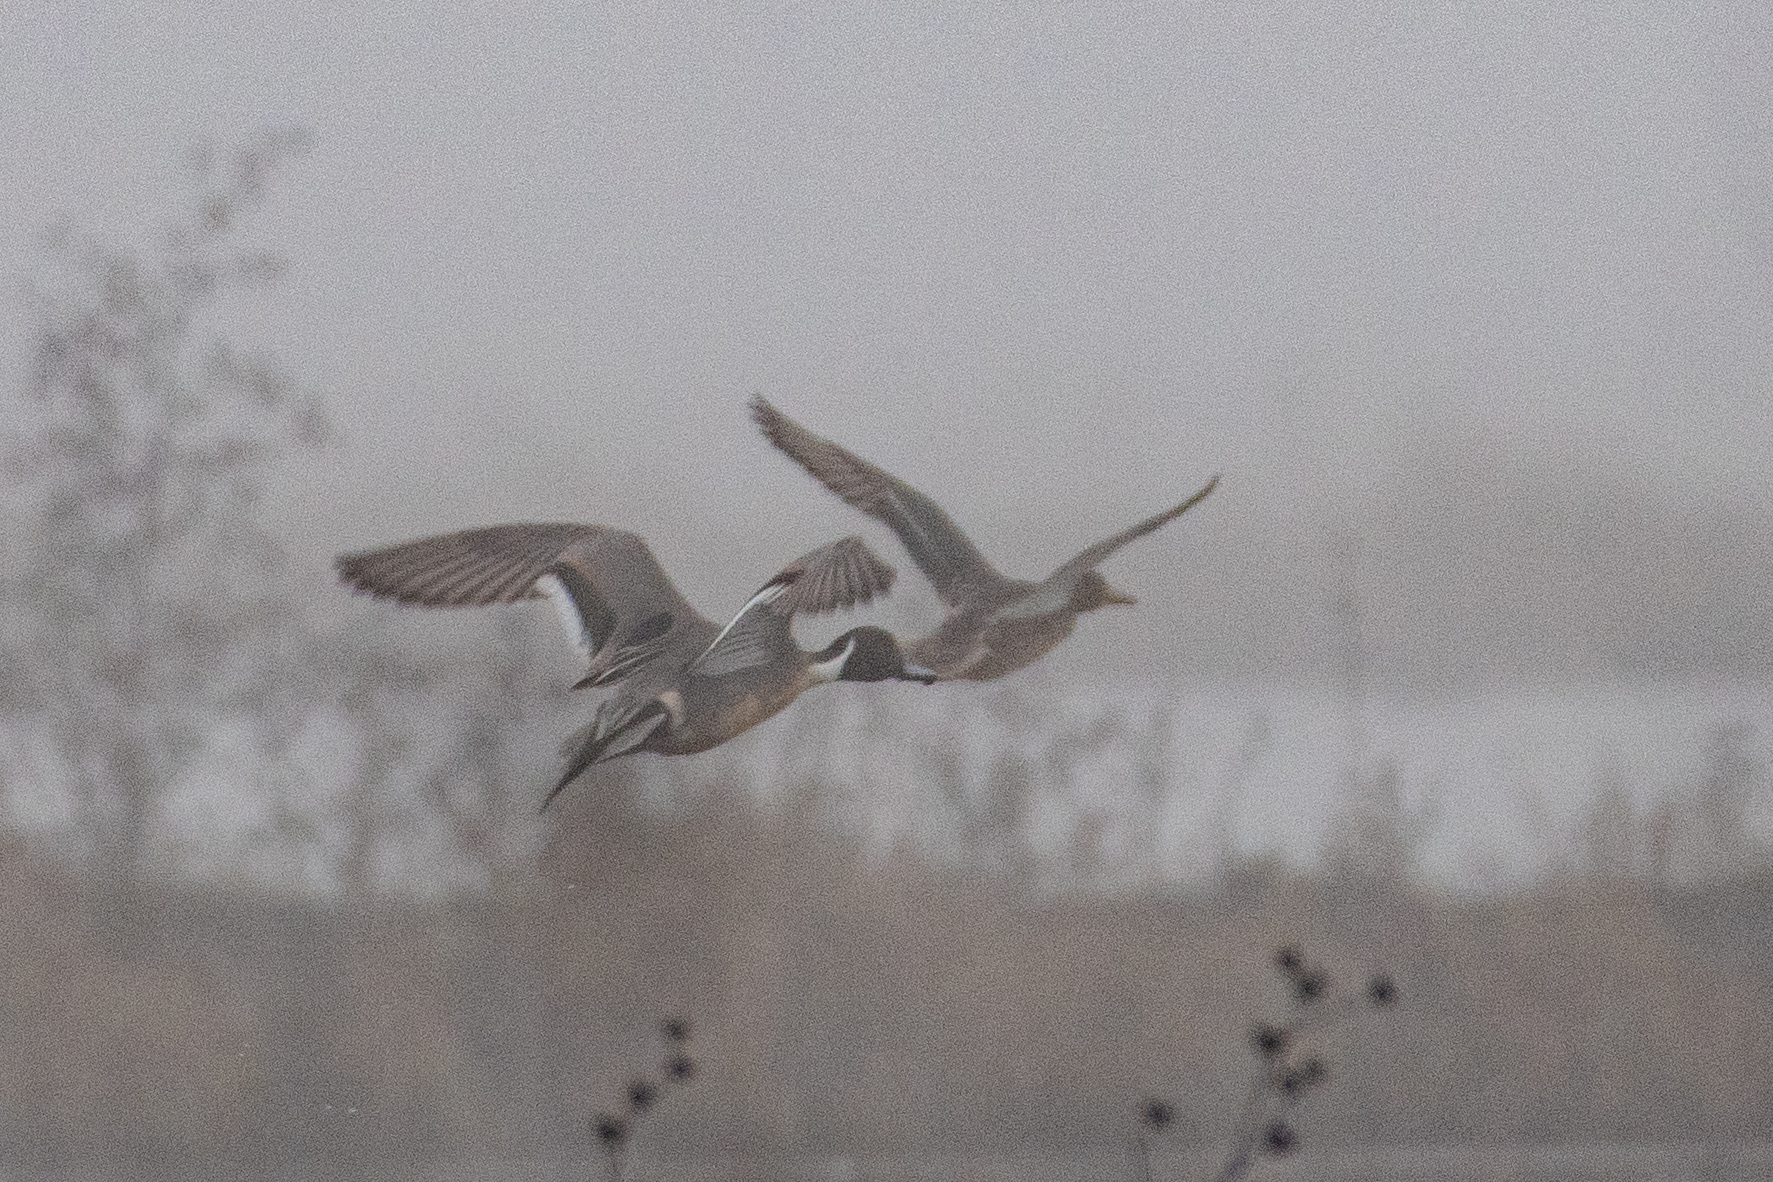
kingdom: Animalia
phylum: Chordata
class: Aves
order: Anseriformes
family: Anatidae
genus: Anas
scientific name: Anas acuta
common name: Northern pintail
